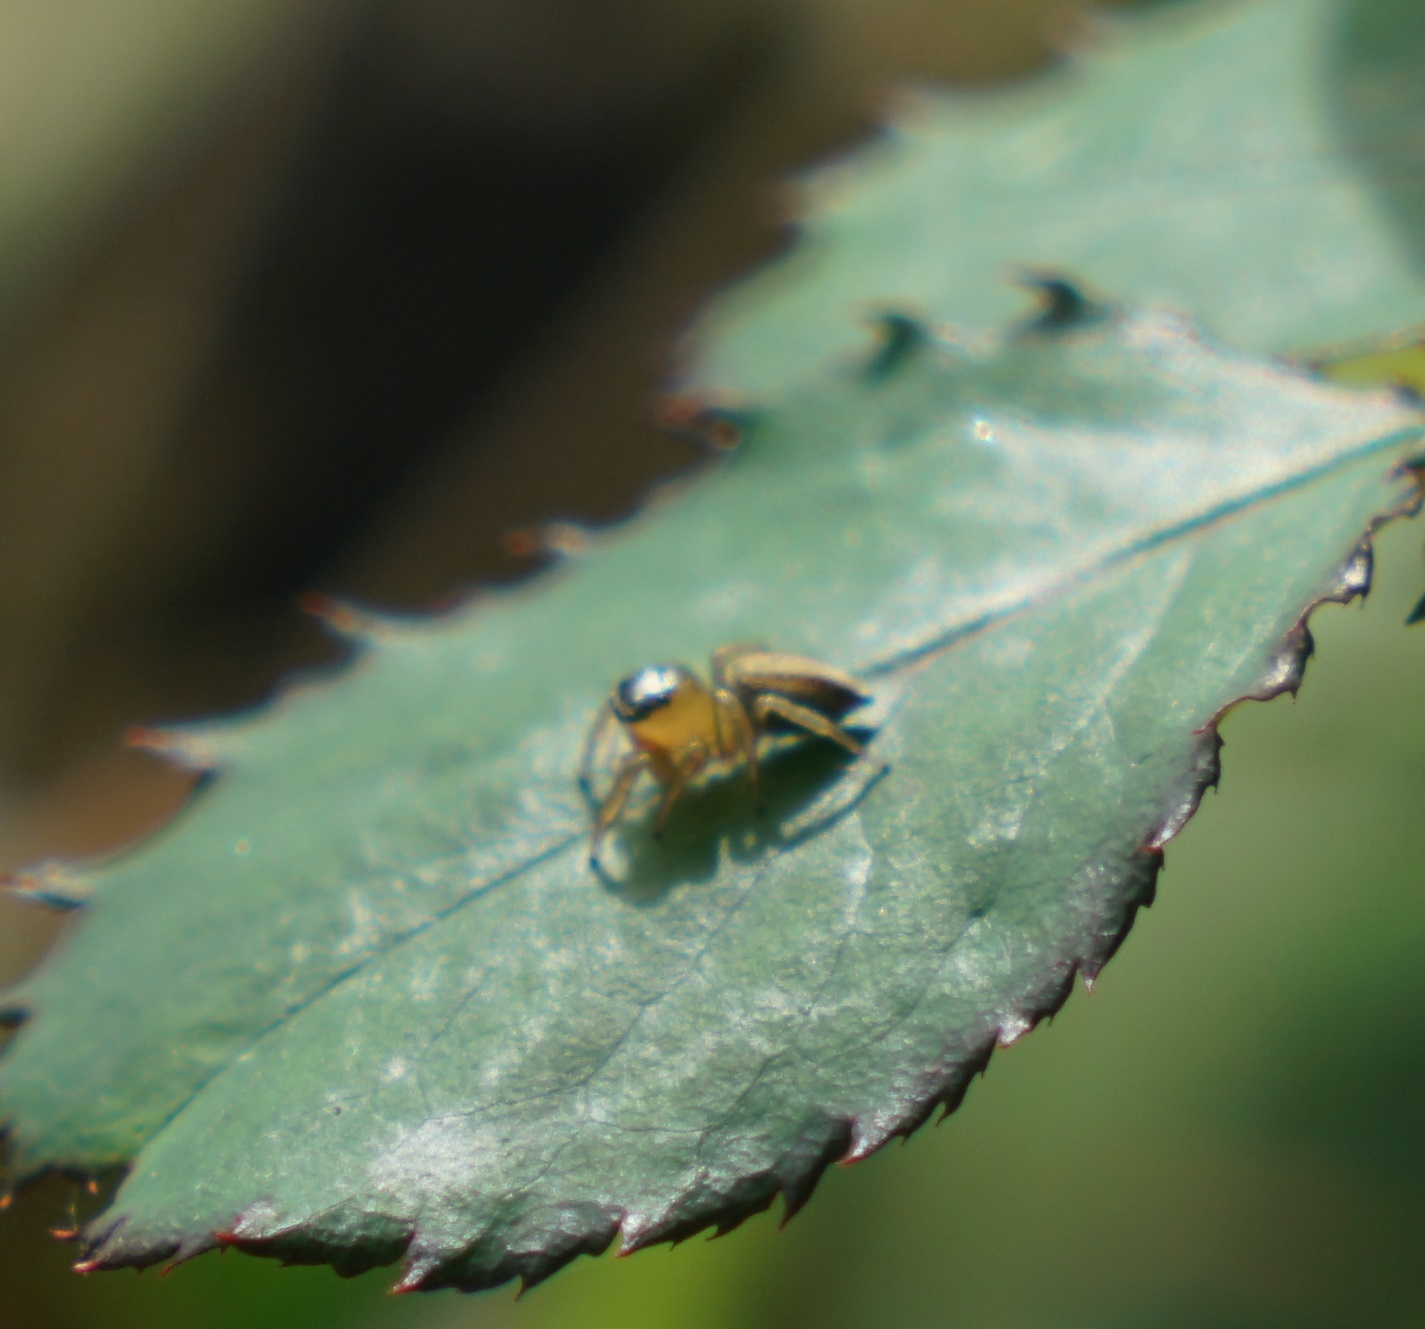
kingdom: Animalia
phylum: Arthropoda
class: Arachnida
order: Araneae
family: Salticidae
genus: Maratus
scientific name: Maratus scutulatus
